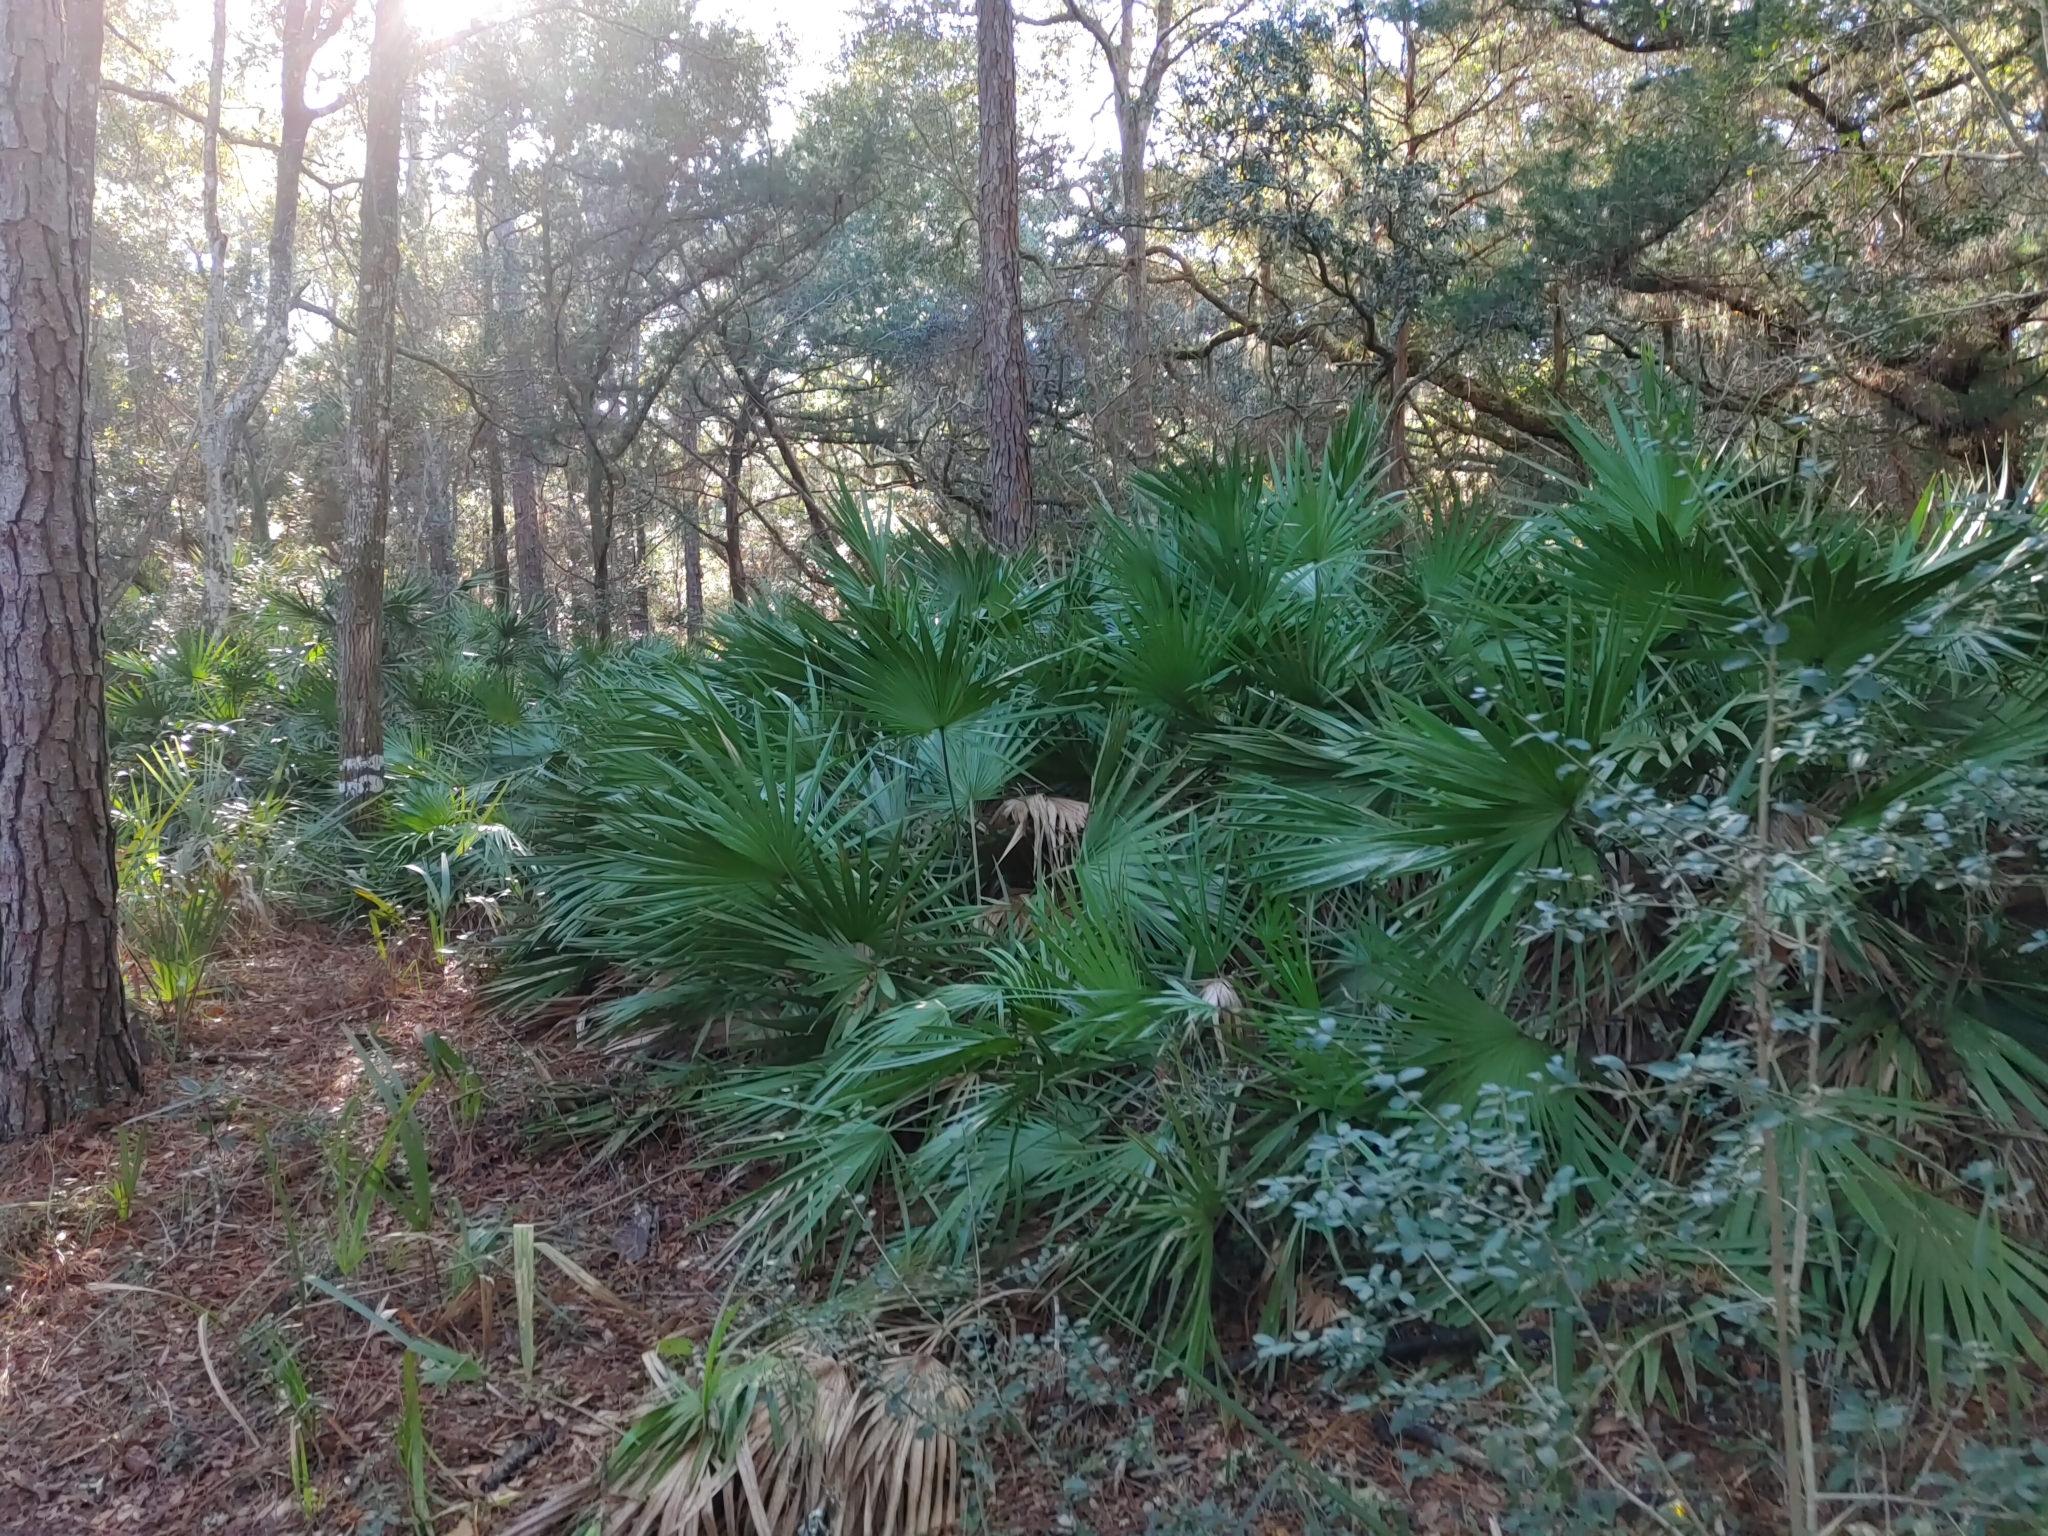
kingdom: Plantae
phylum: Tracheophyta
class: Liliopsida
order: Arecales
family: Arecaceae
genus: Serenoa
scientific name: Serenoa repens
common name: Saw-palmetto
